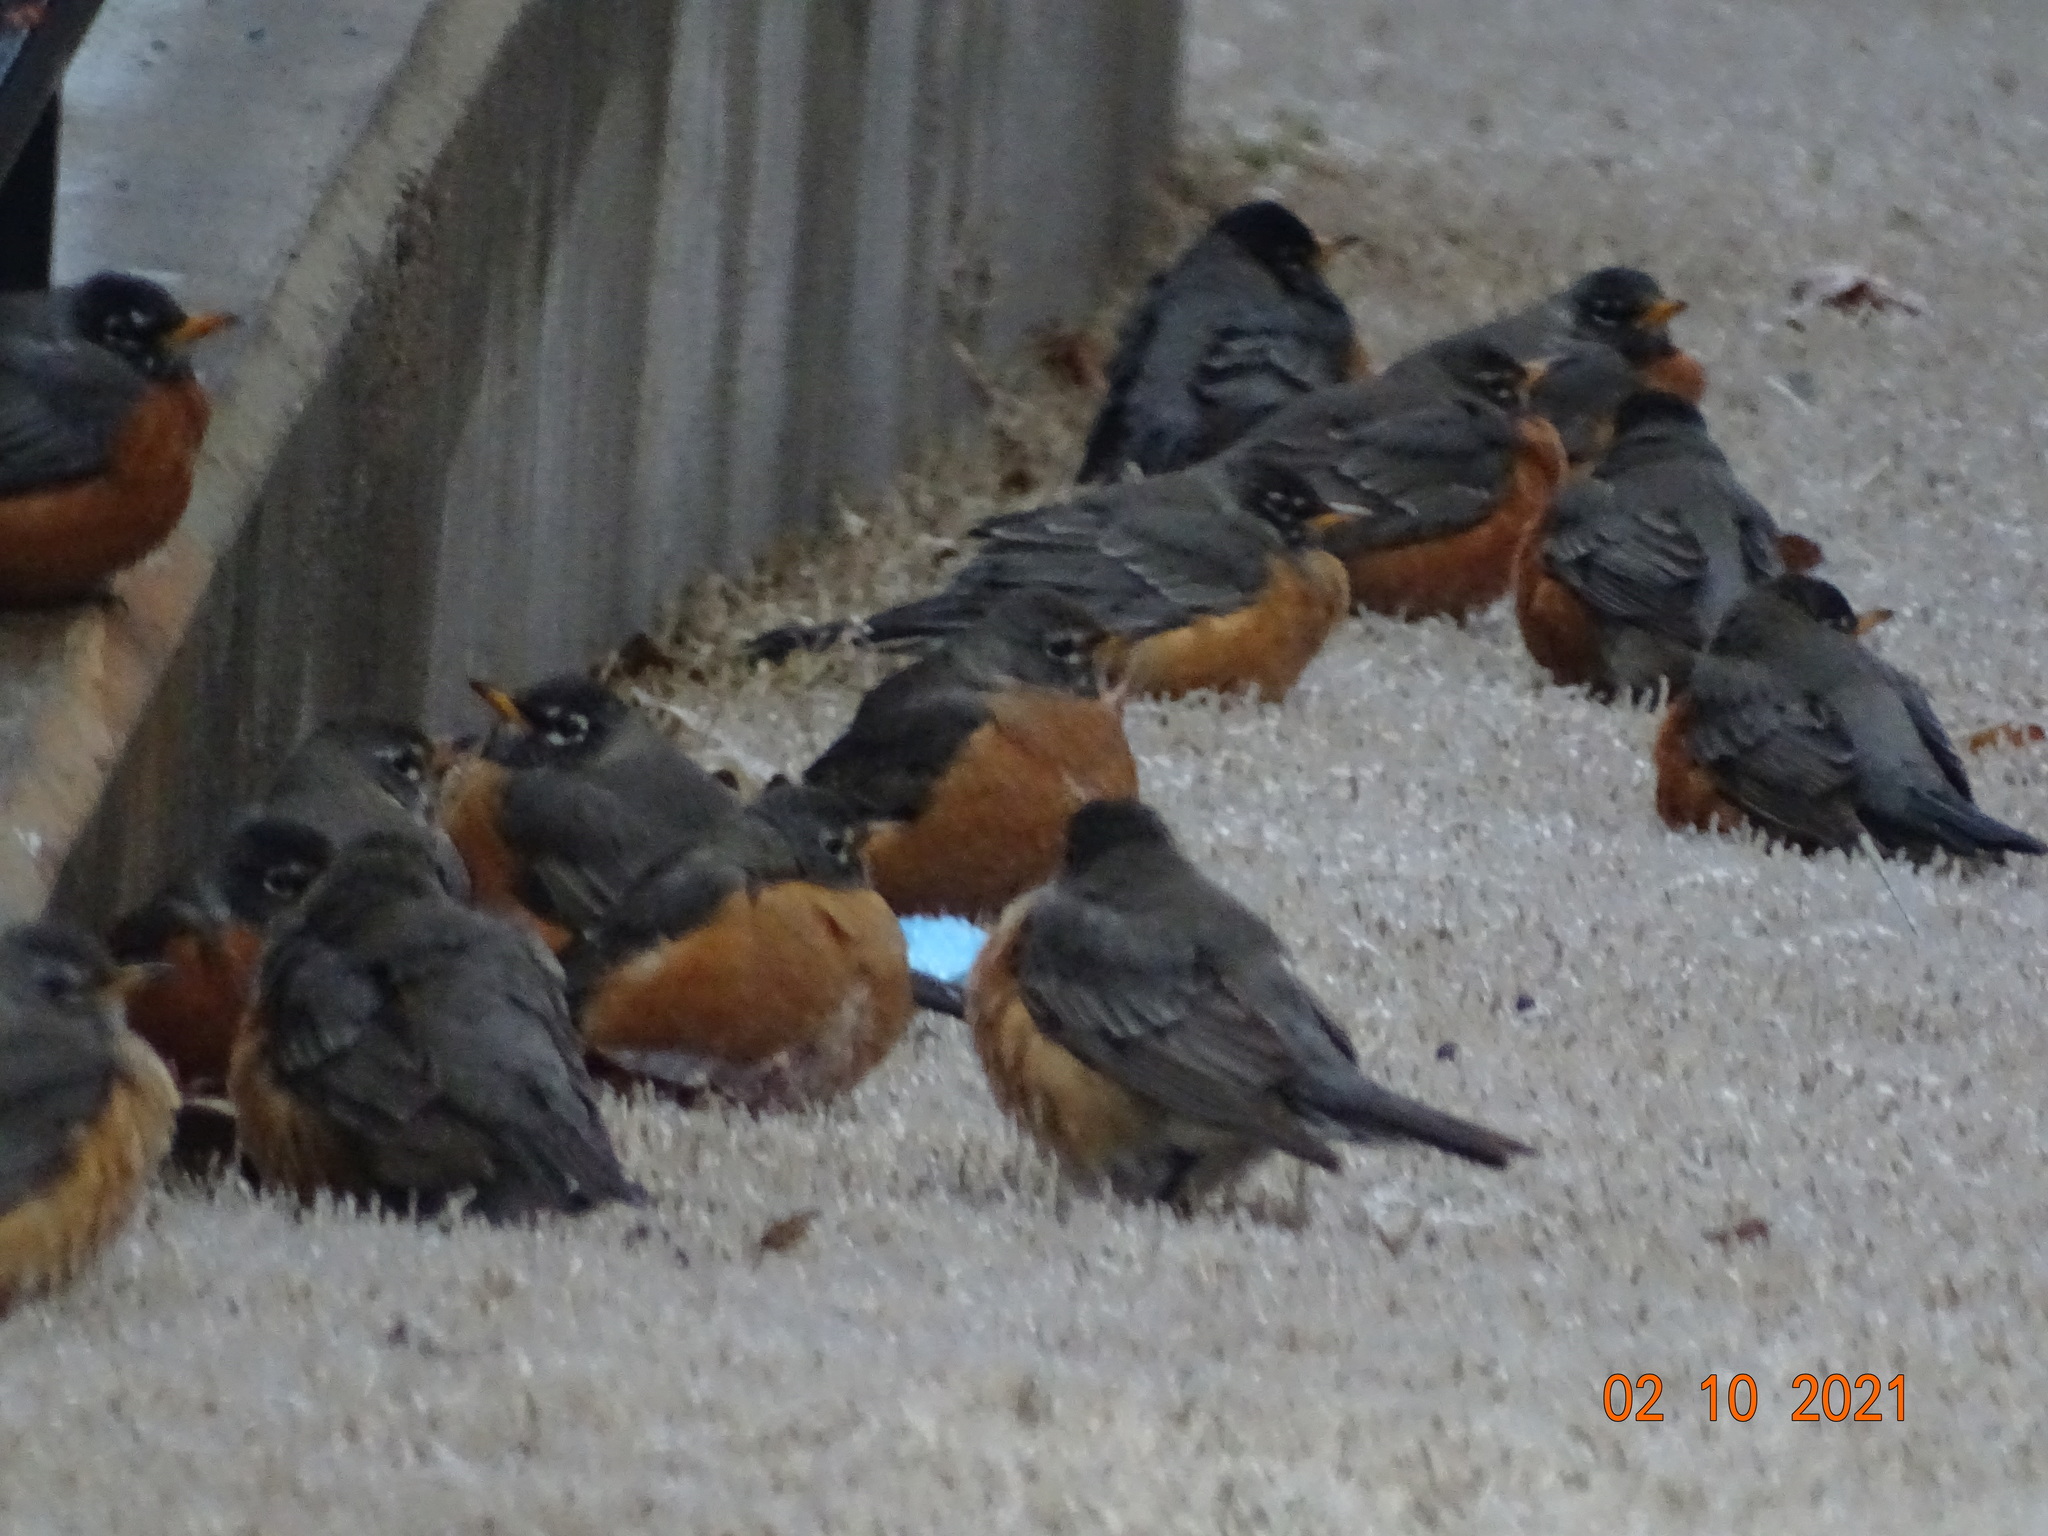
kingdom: Animalia
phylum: Chordata
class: Aves
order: Passeriformes
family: Turdidae
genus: Turdus
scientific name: Turdus migratorius
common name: American robin
